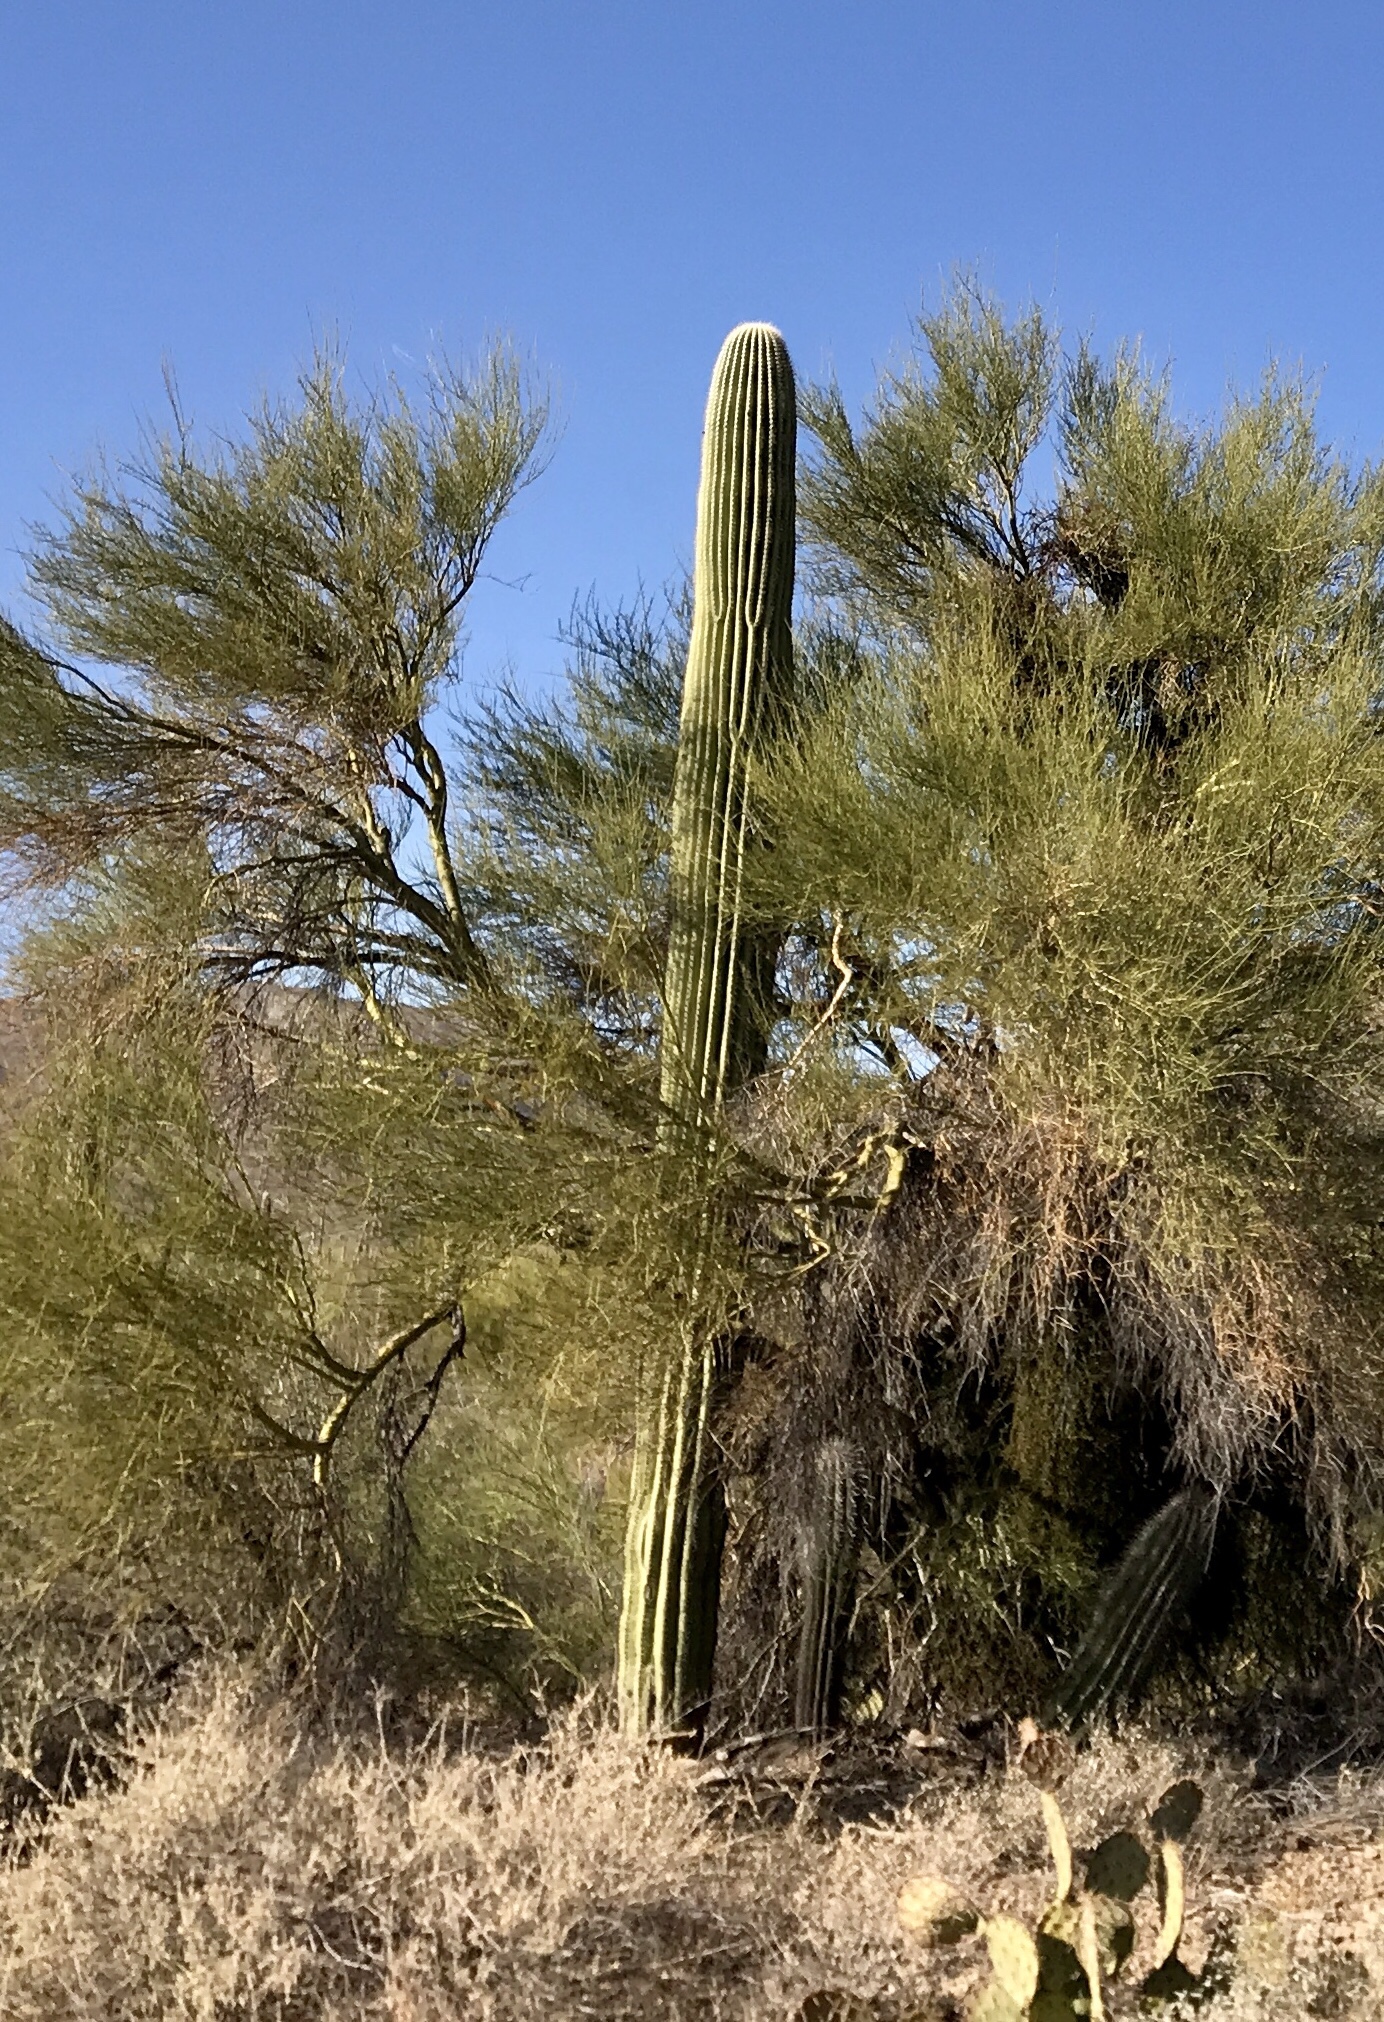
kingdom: Plantae
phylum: Tracheophyta
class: Magnoliopsida
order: Caryophyllales
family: Cactaceae
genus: Carnegiea
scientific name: Carnegiea gigantea
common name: Saguaro
